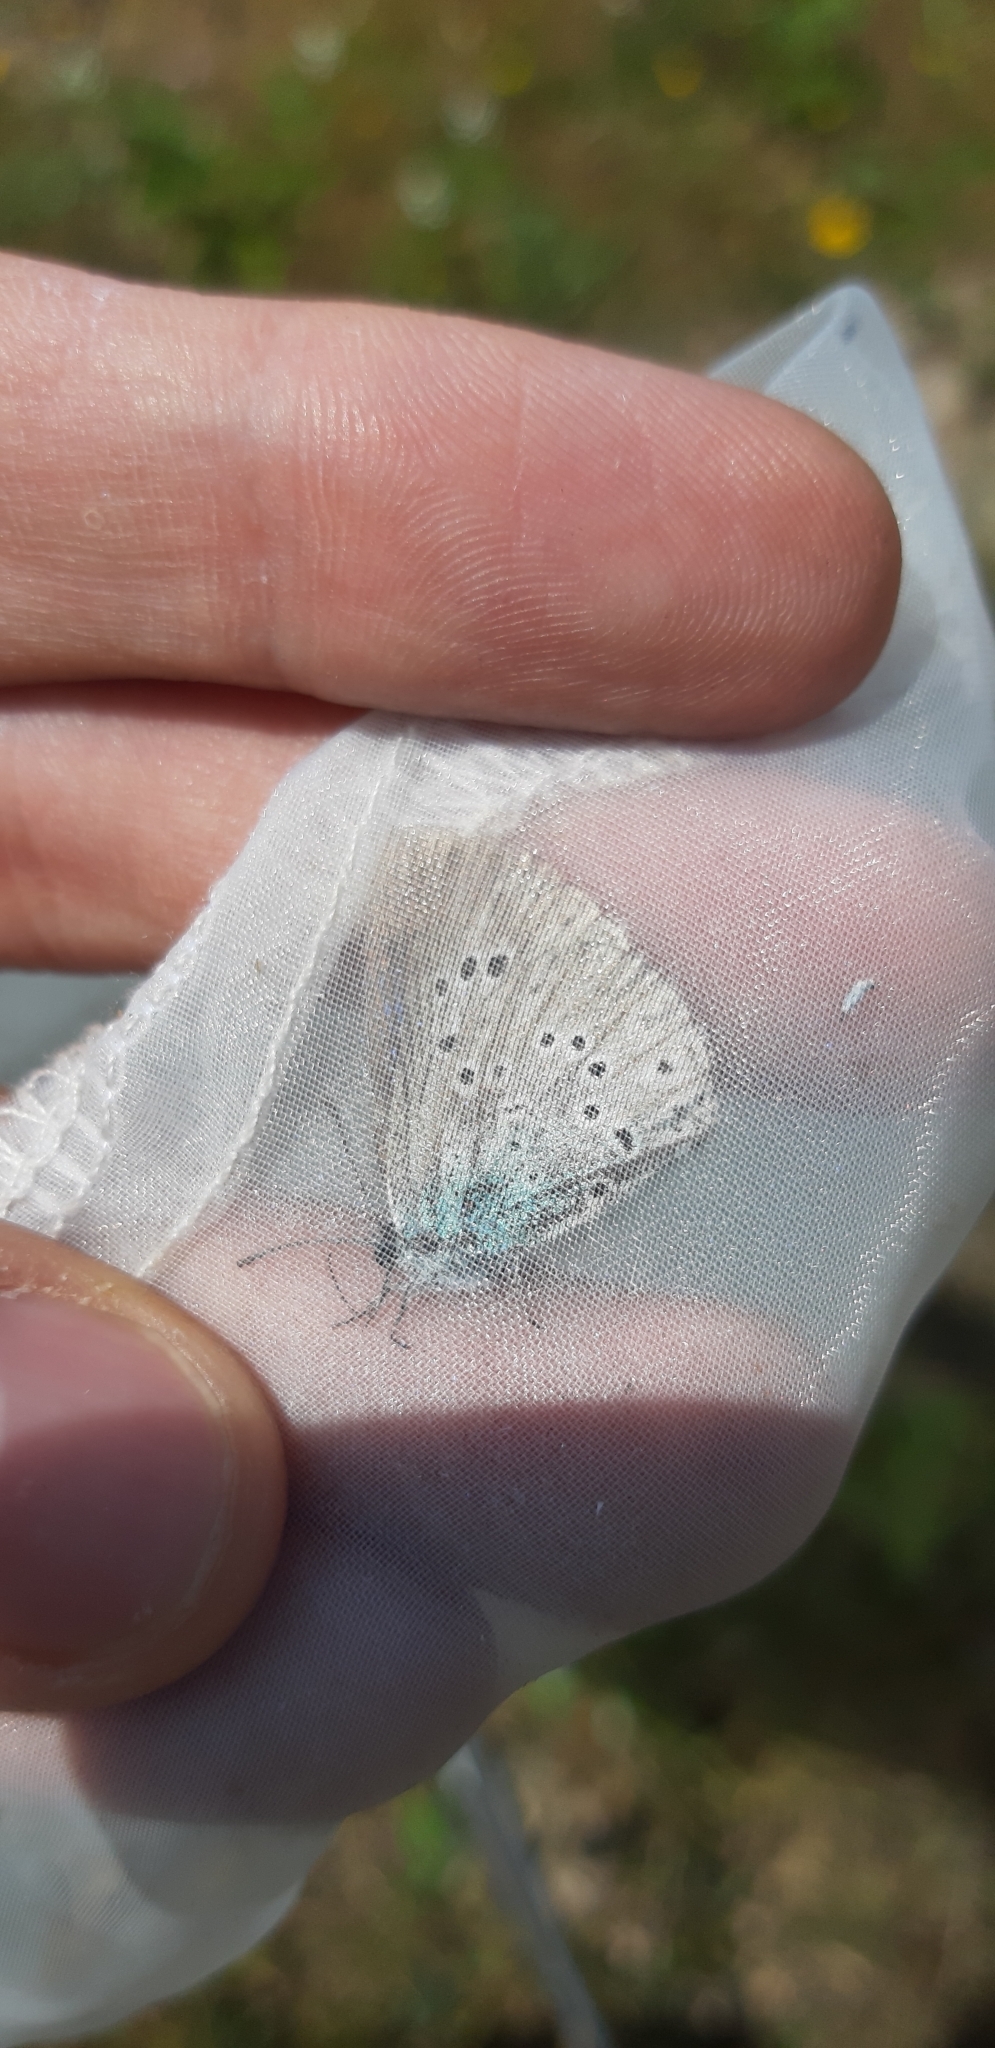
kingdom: Animalia
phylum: Arthropoda
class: Insecta
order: Lepidoptera
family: Lycaenidae
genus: Glaucopsyche
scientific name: Glaucopsyche alexis
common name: Green-underside blue
